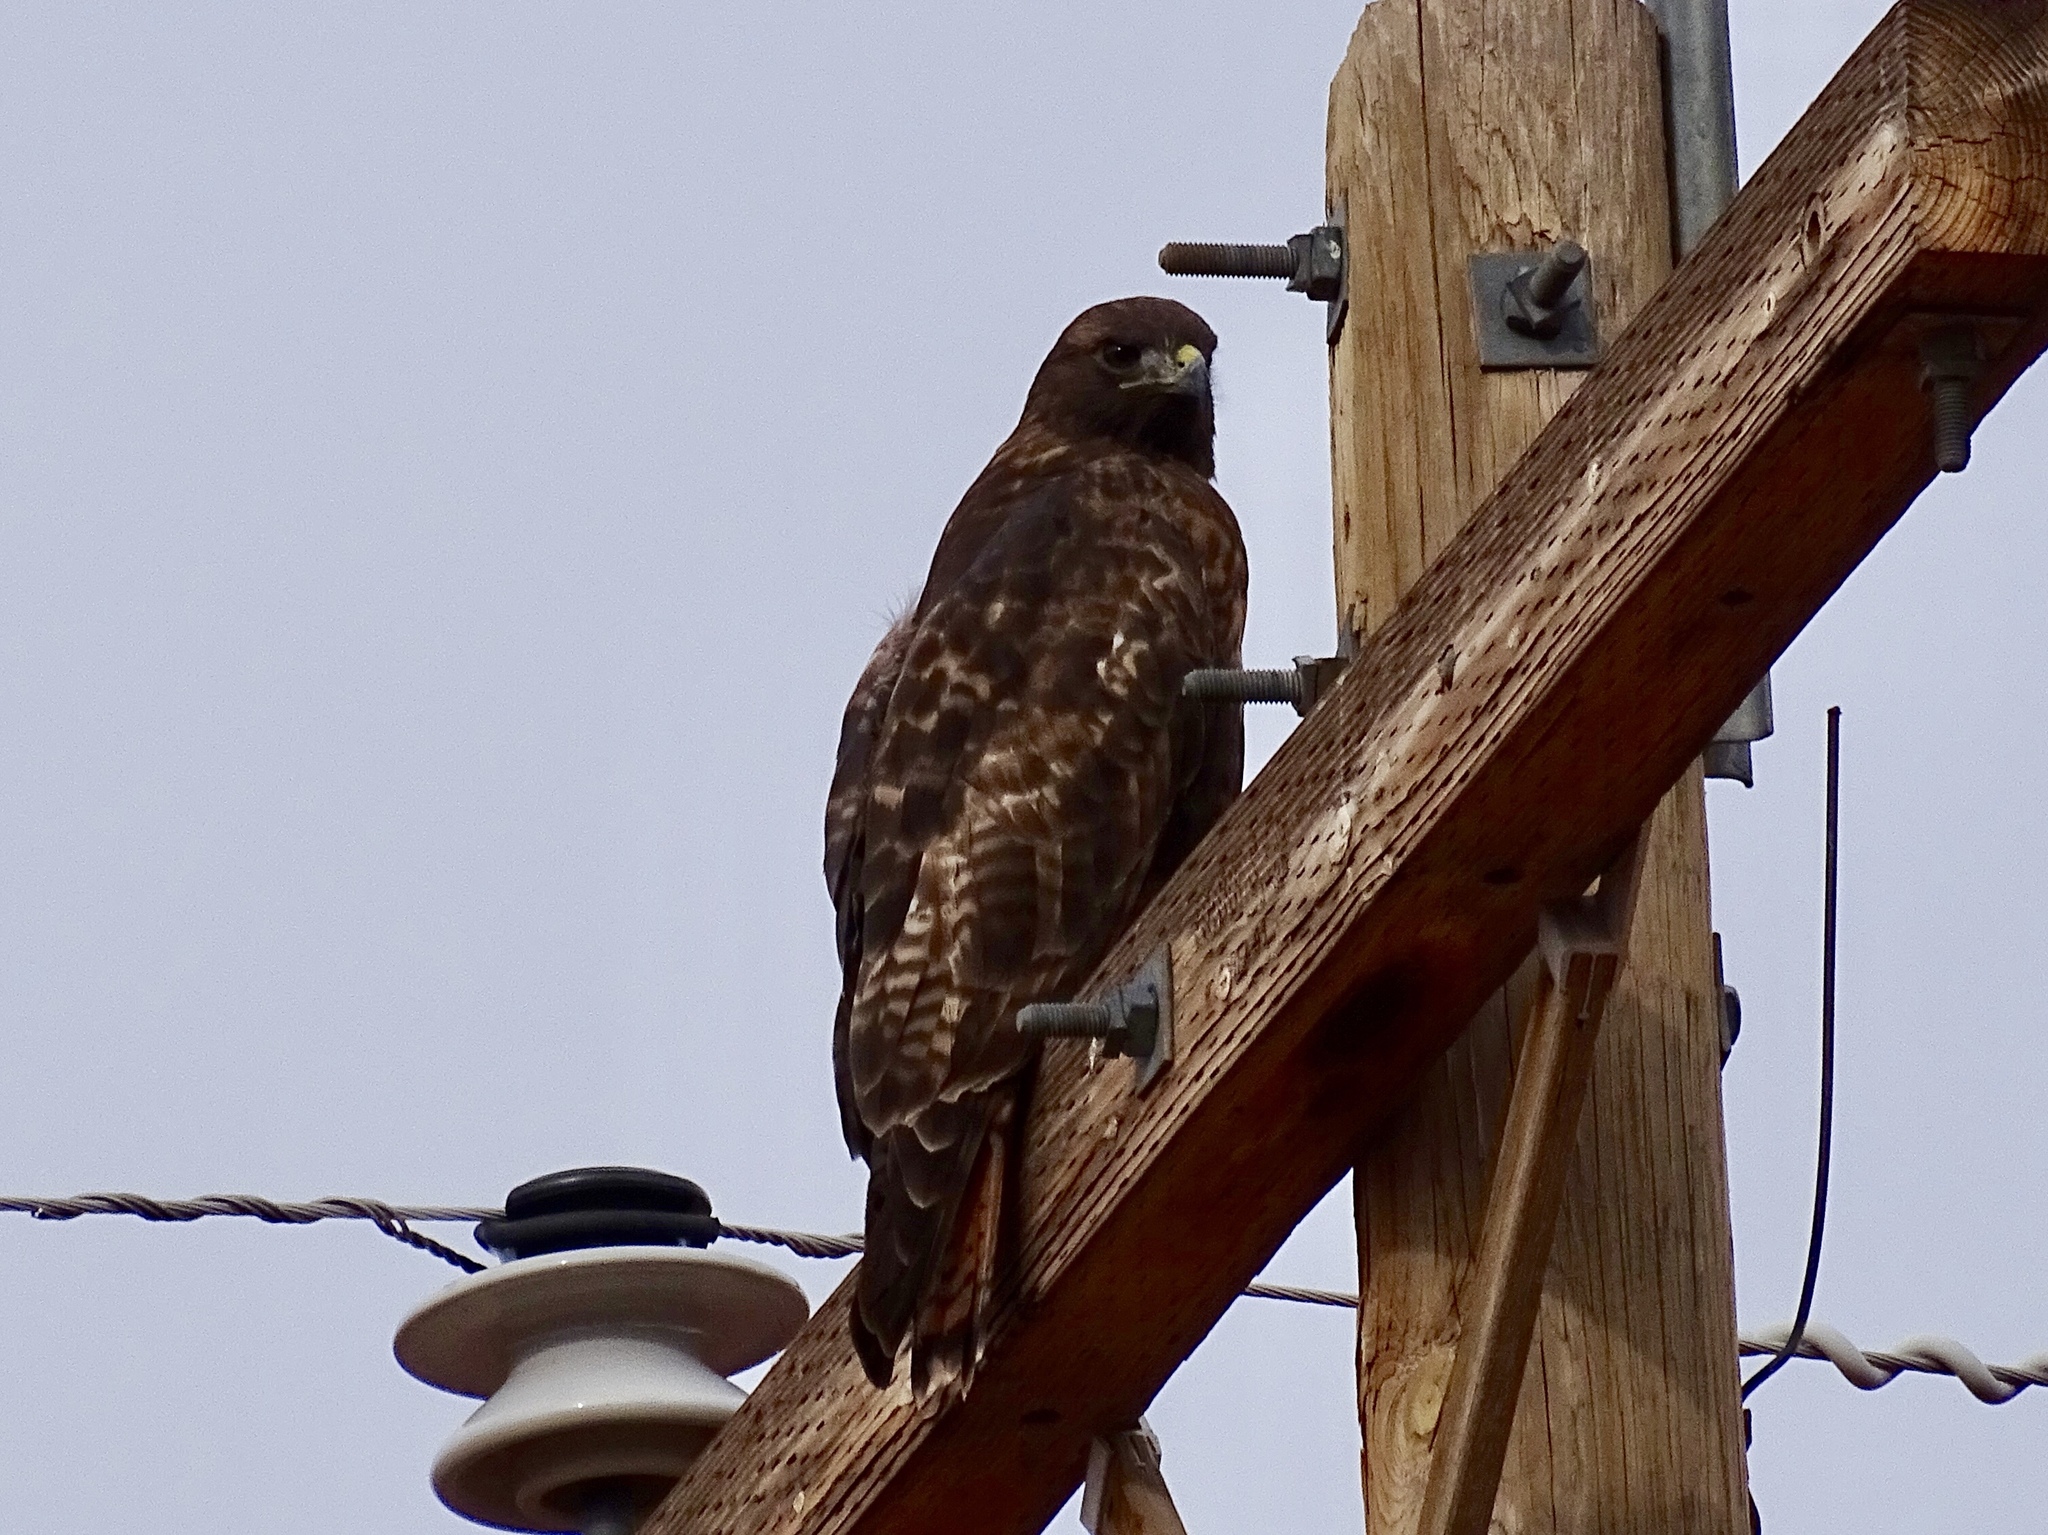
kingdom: Animalia
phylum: Chordata
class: Aves
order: Accipitriformes
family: Accipitridae
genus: Buteo
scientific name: Buteo jamaicensis
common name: Red-tailed hawk
